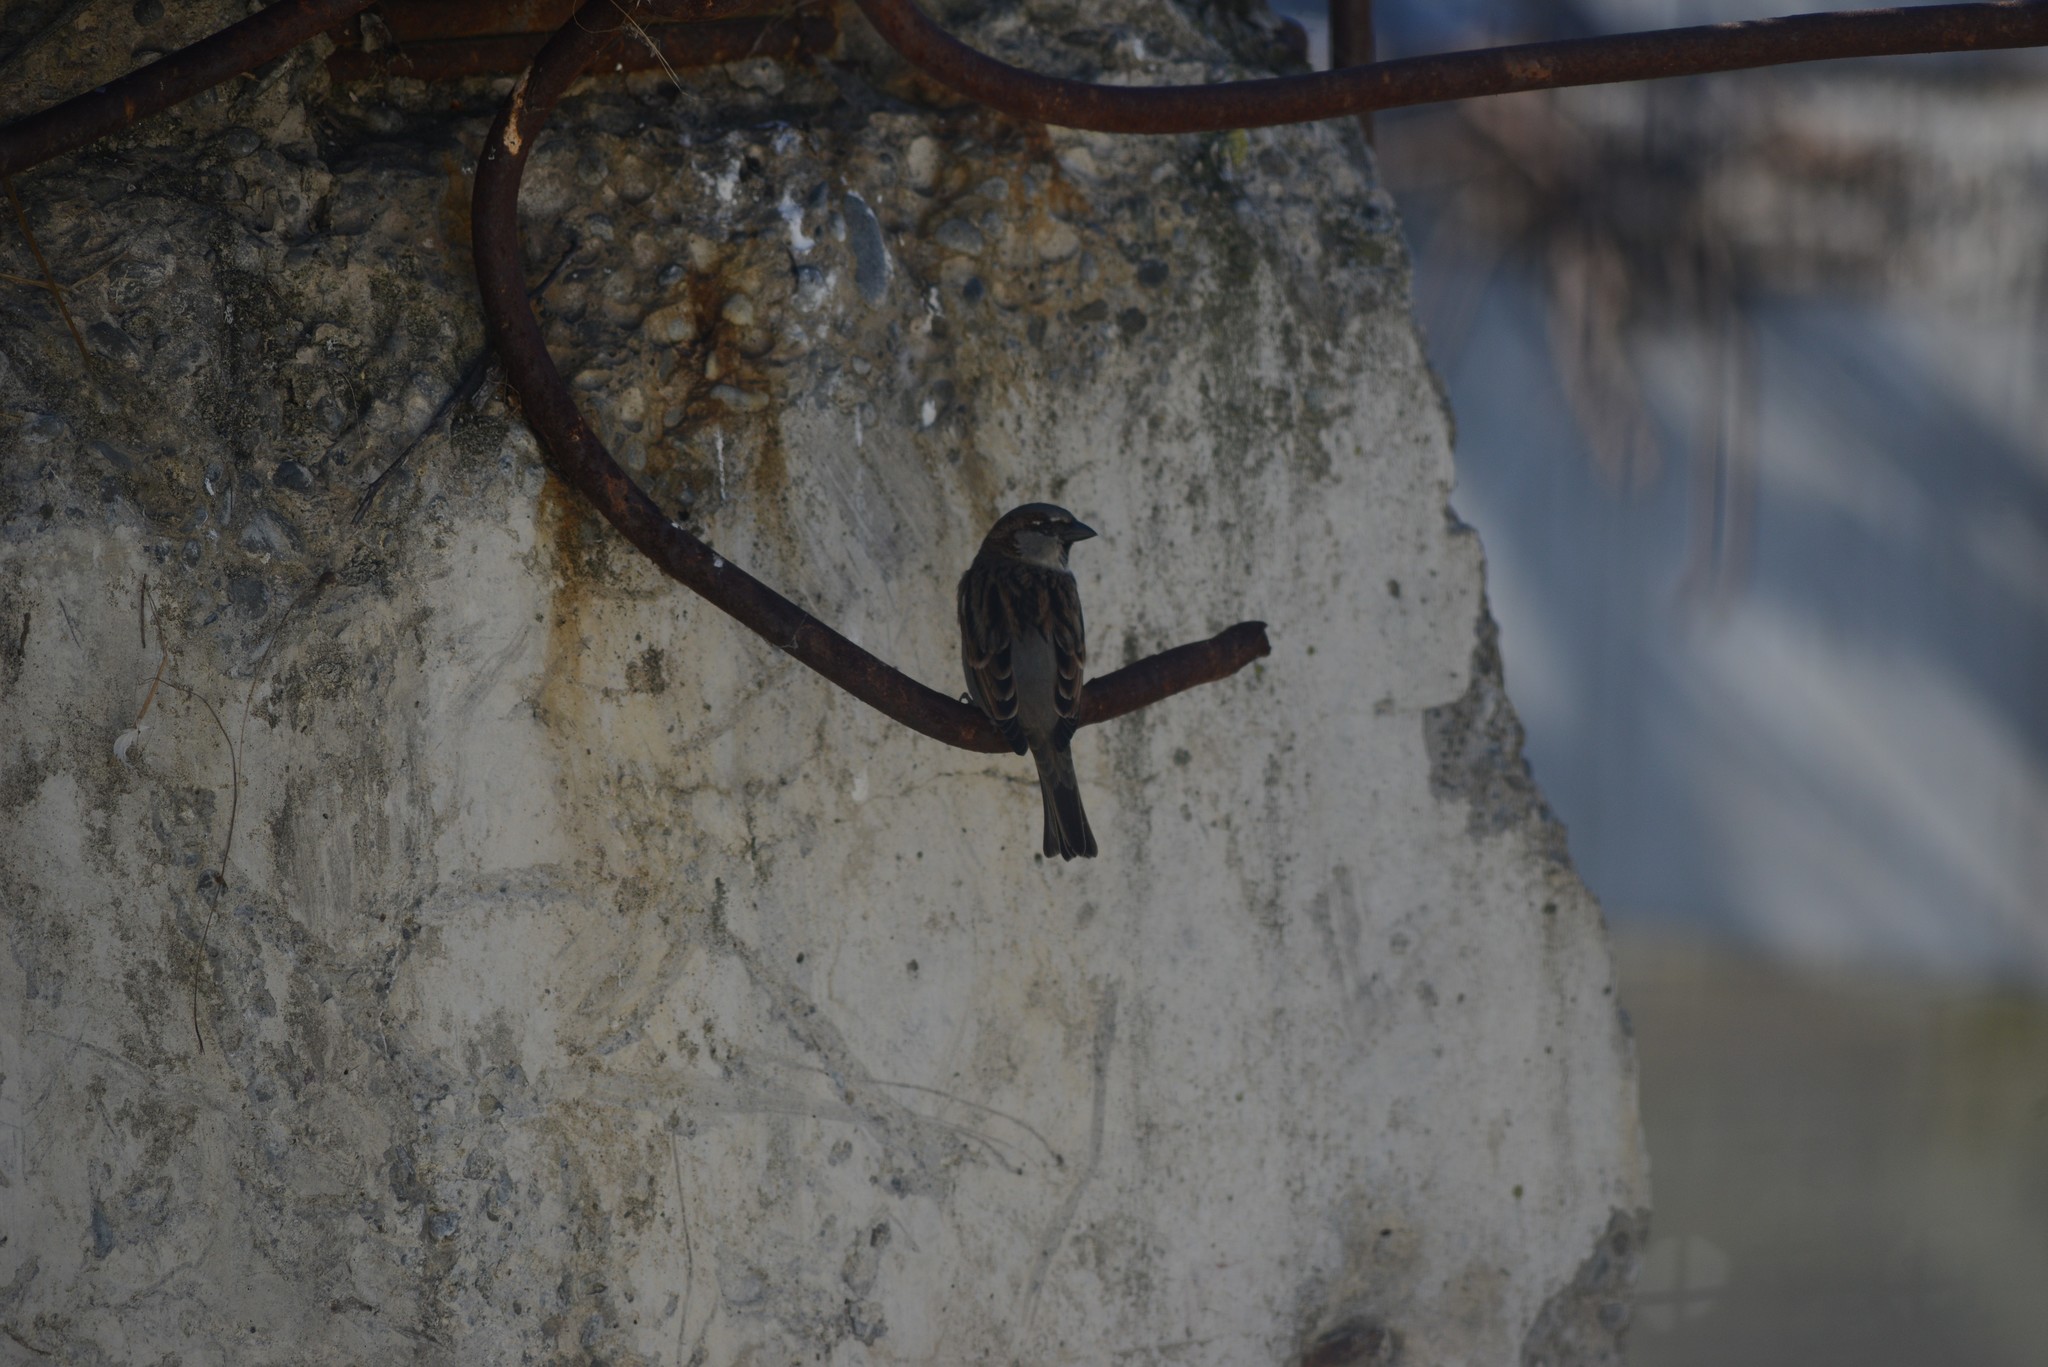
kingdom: Animalia
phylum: Chordata
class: Aves
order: Passeriformes
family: Passeridae
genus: Passer
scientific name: Passer domesticus
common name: House sparrow
